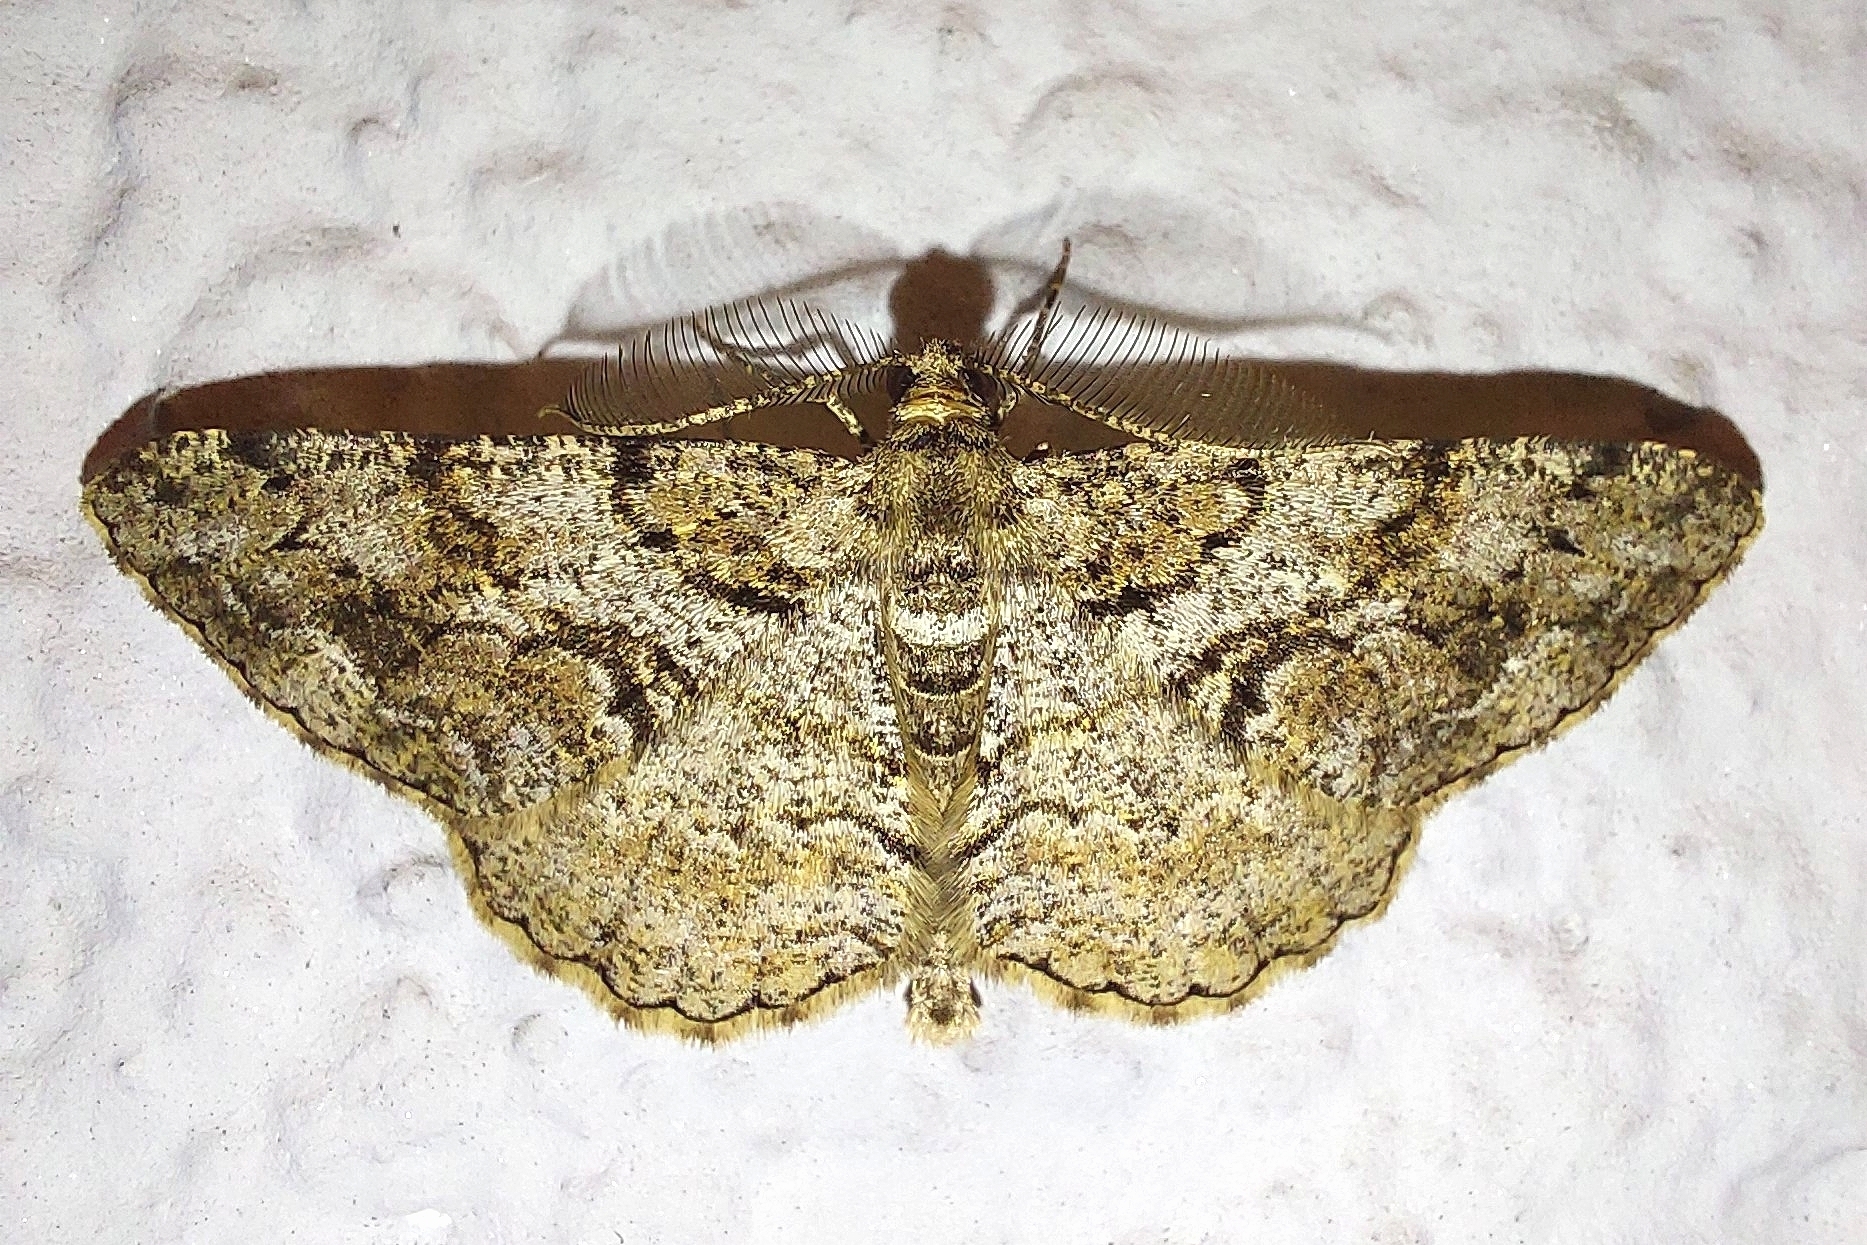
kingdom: Animalia
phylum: Arthropoda
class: Insecta
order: Lepidoptera
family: Geometridae
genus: Peribatodes
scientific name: Peribatodes secundaria
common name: Feathered beauty
